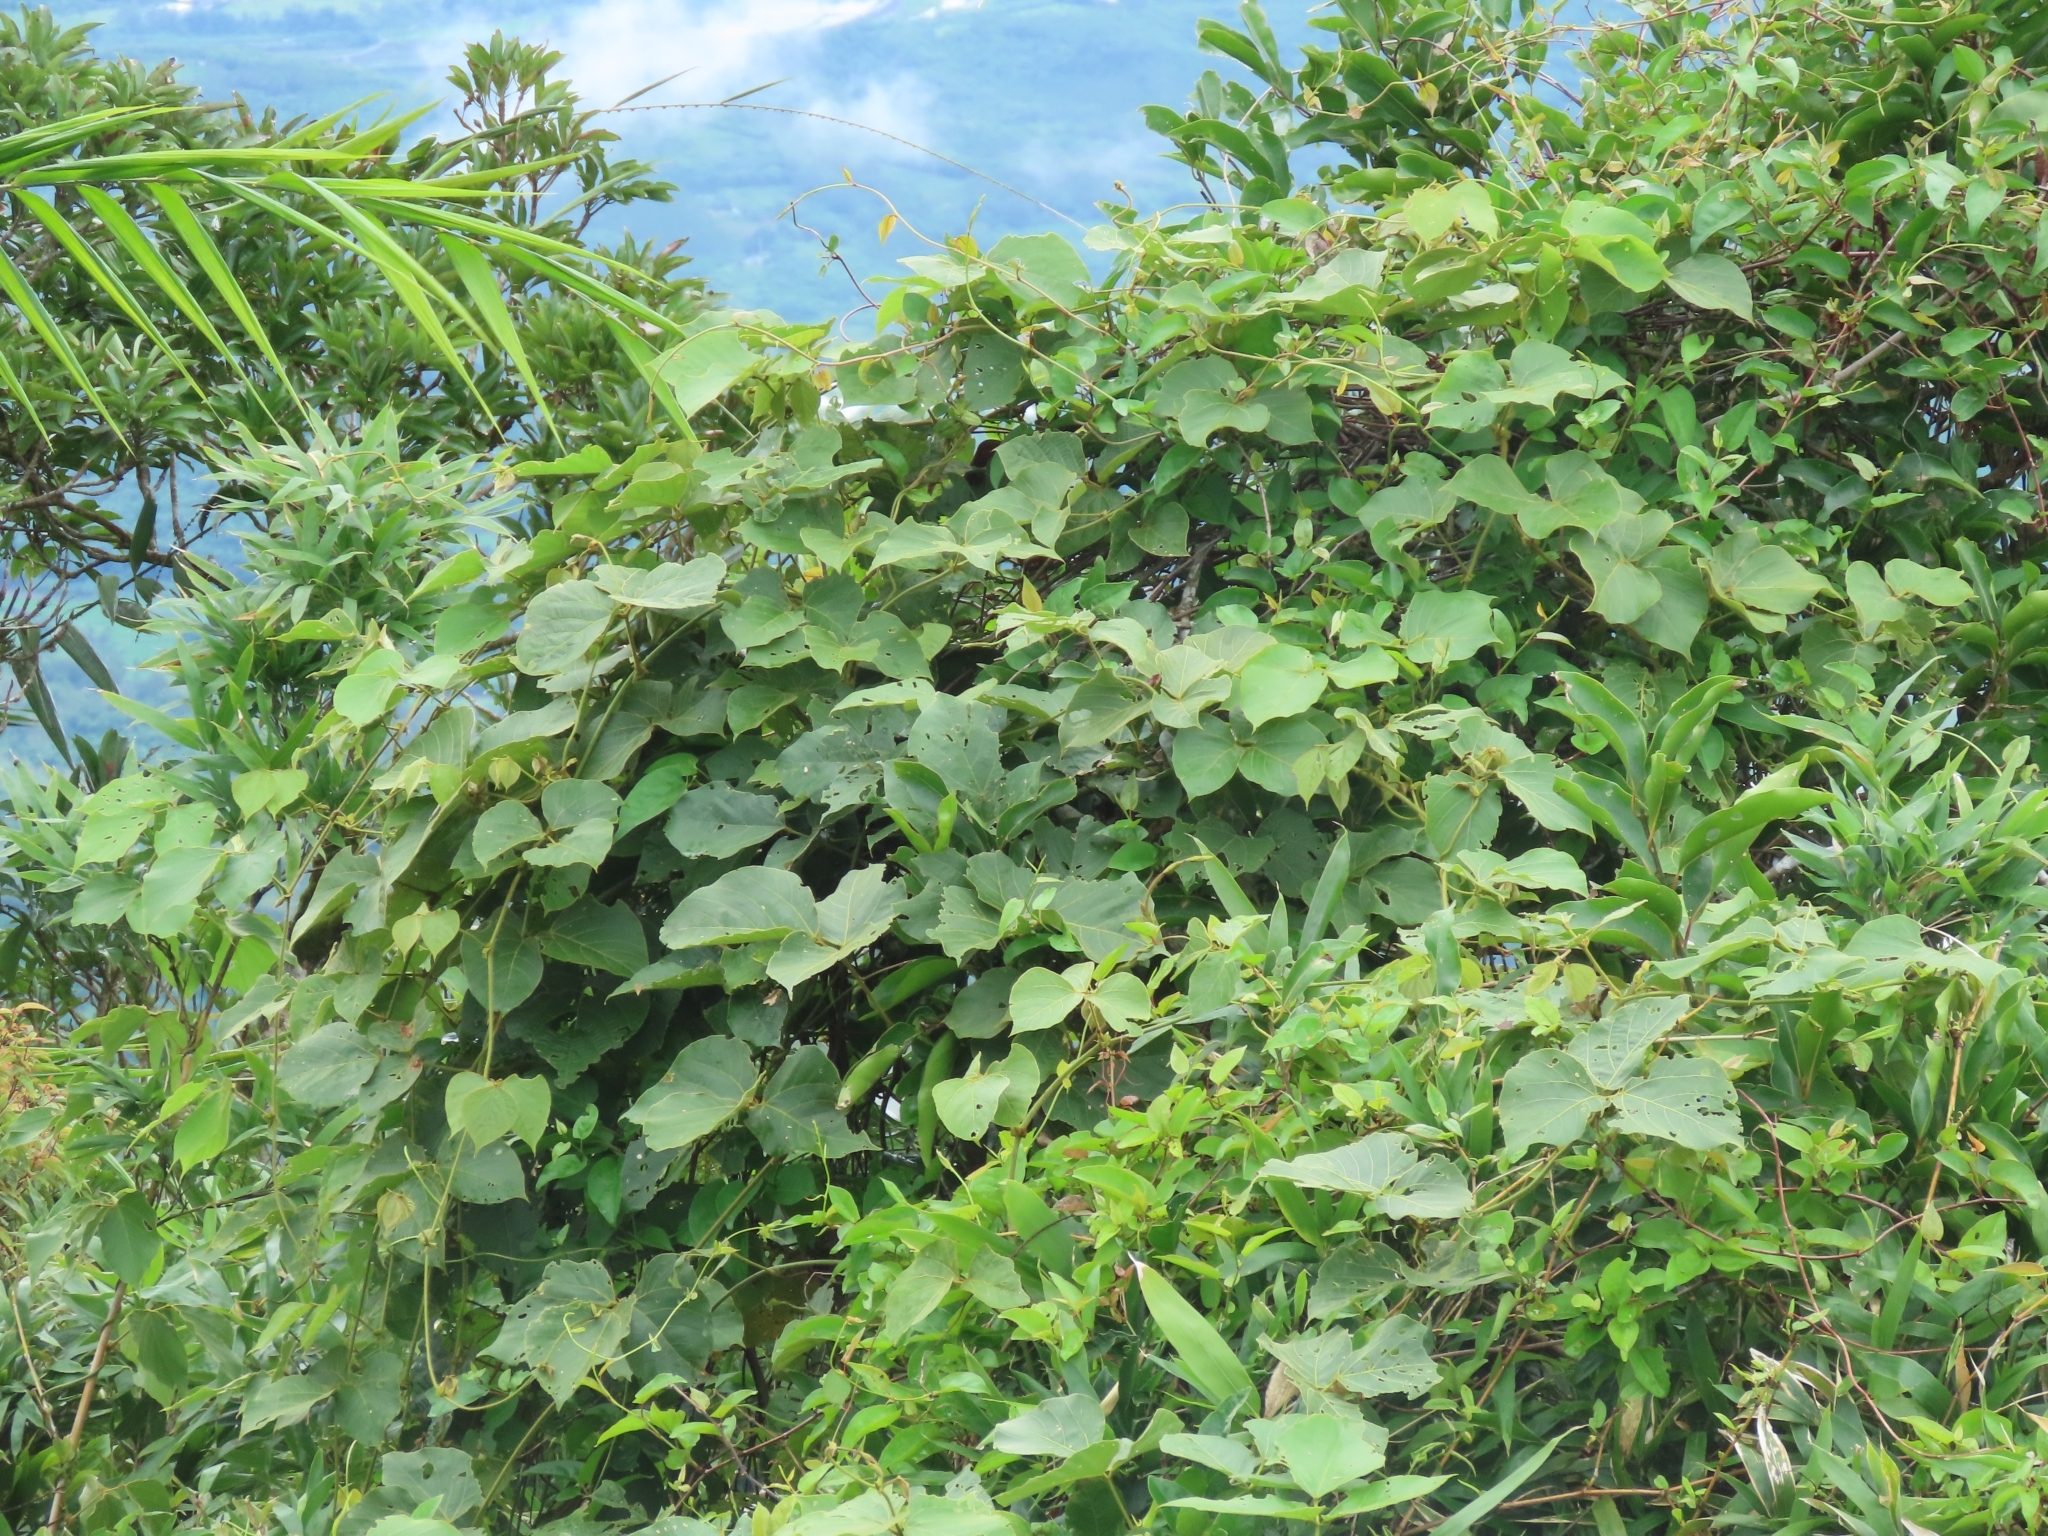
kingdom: Plantae
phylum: Tracheophyta
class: Magnoliopsida
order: Fabales
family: Fabaceae
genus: Pueraria
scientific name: Pueraria montana
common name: Kudzu
